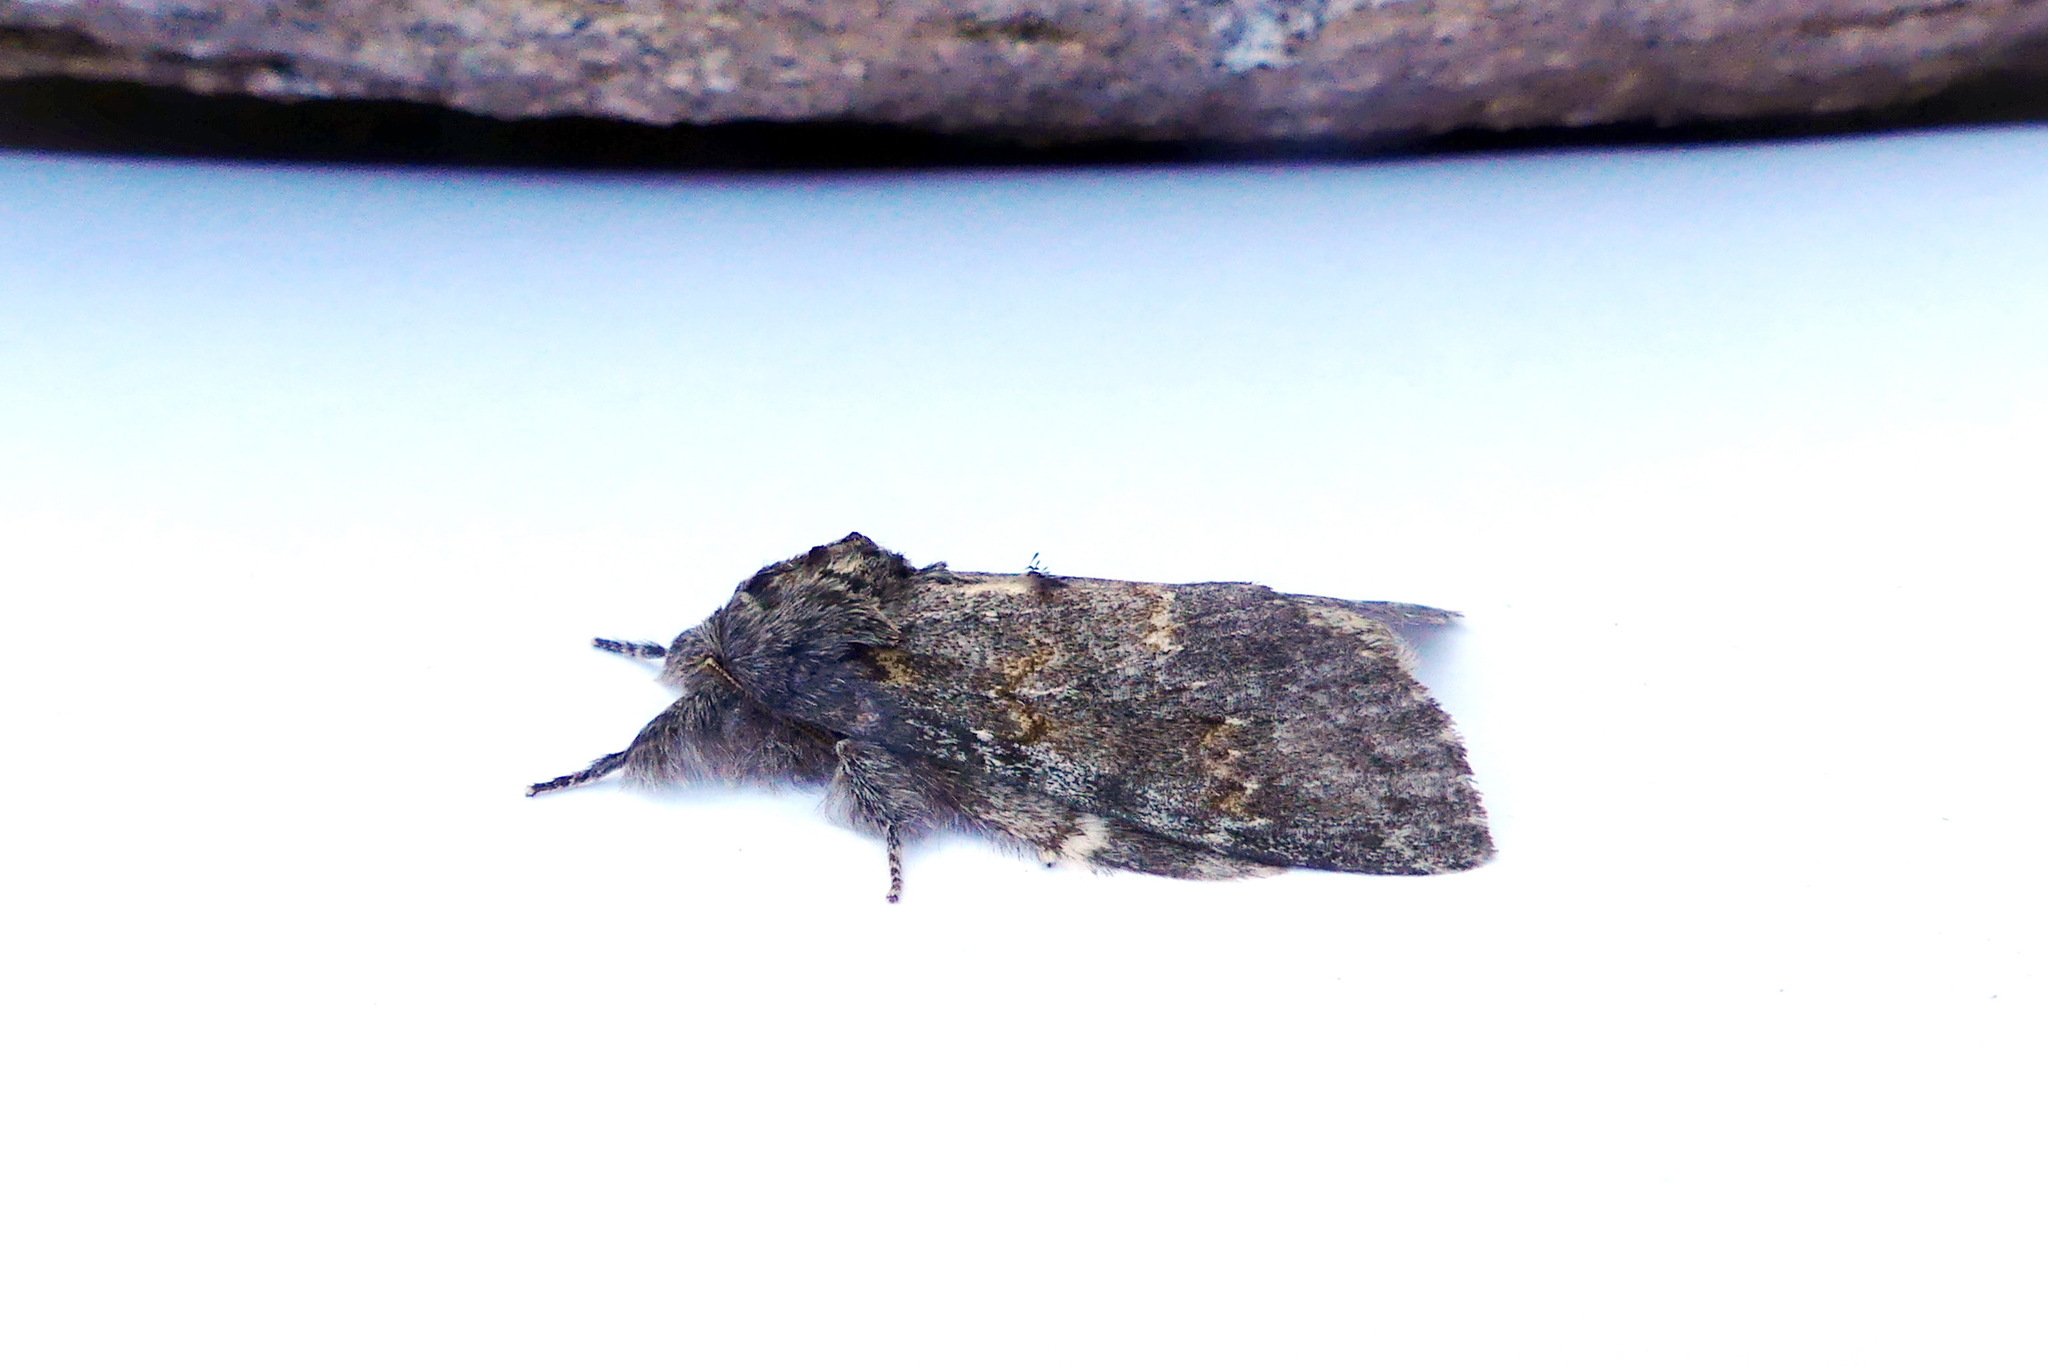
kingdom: Animalia
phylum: Arthropoda
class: Insecta
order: Lepidoptera
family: Notodontidae
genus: Peridea
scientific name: Peridea angulosa
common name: Angulose prominent
